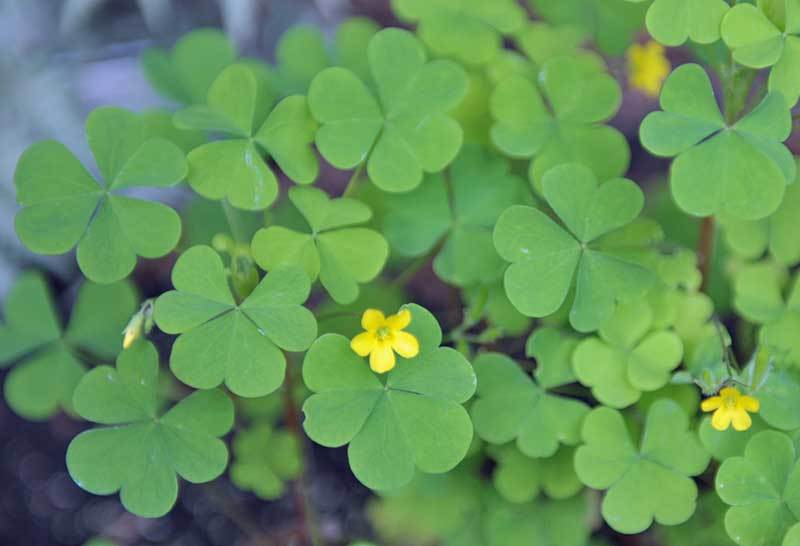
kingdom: Plantae
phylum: Tracheophyta
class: Magnoliopsida
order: Oxalidales
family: Oxalidaceae
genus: Oxalis
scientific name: Oxalis stricta
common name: Upright yellow-sorrel
